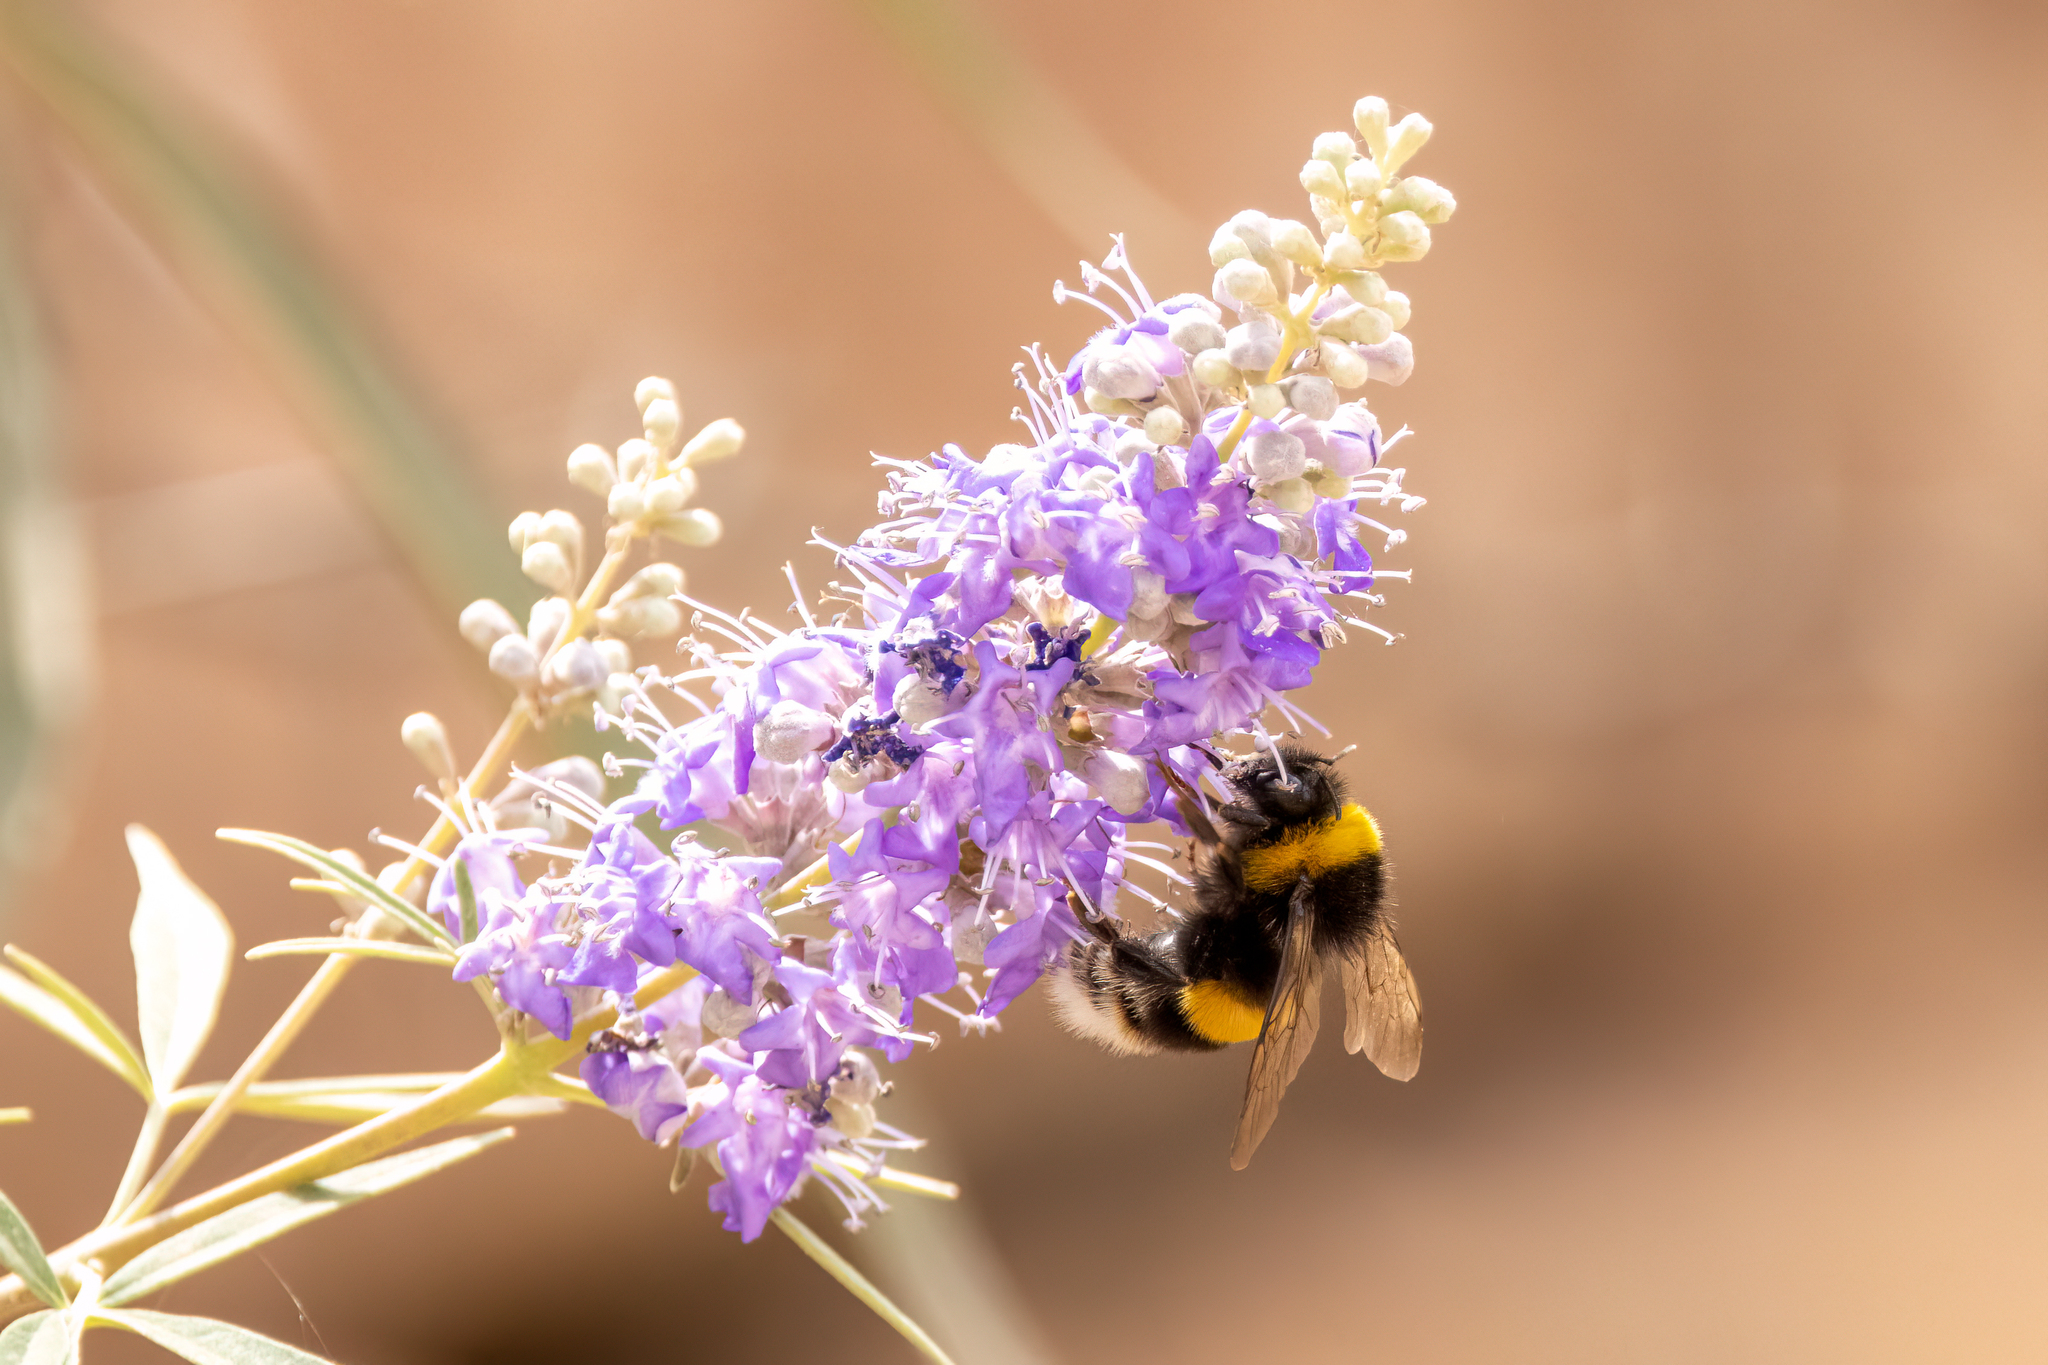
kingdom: Animalia
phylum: Arthropoda
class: Insecta
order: Hymenoptera
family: Apidae
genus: Bombus
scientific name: Bombus terrestris
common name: Buff-tailed bumblebee
